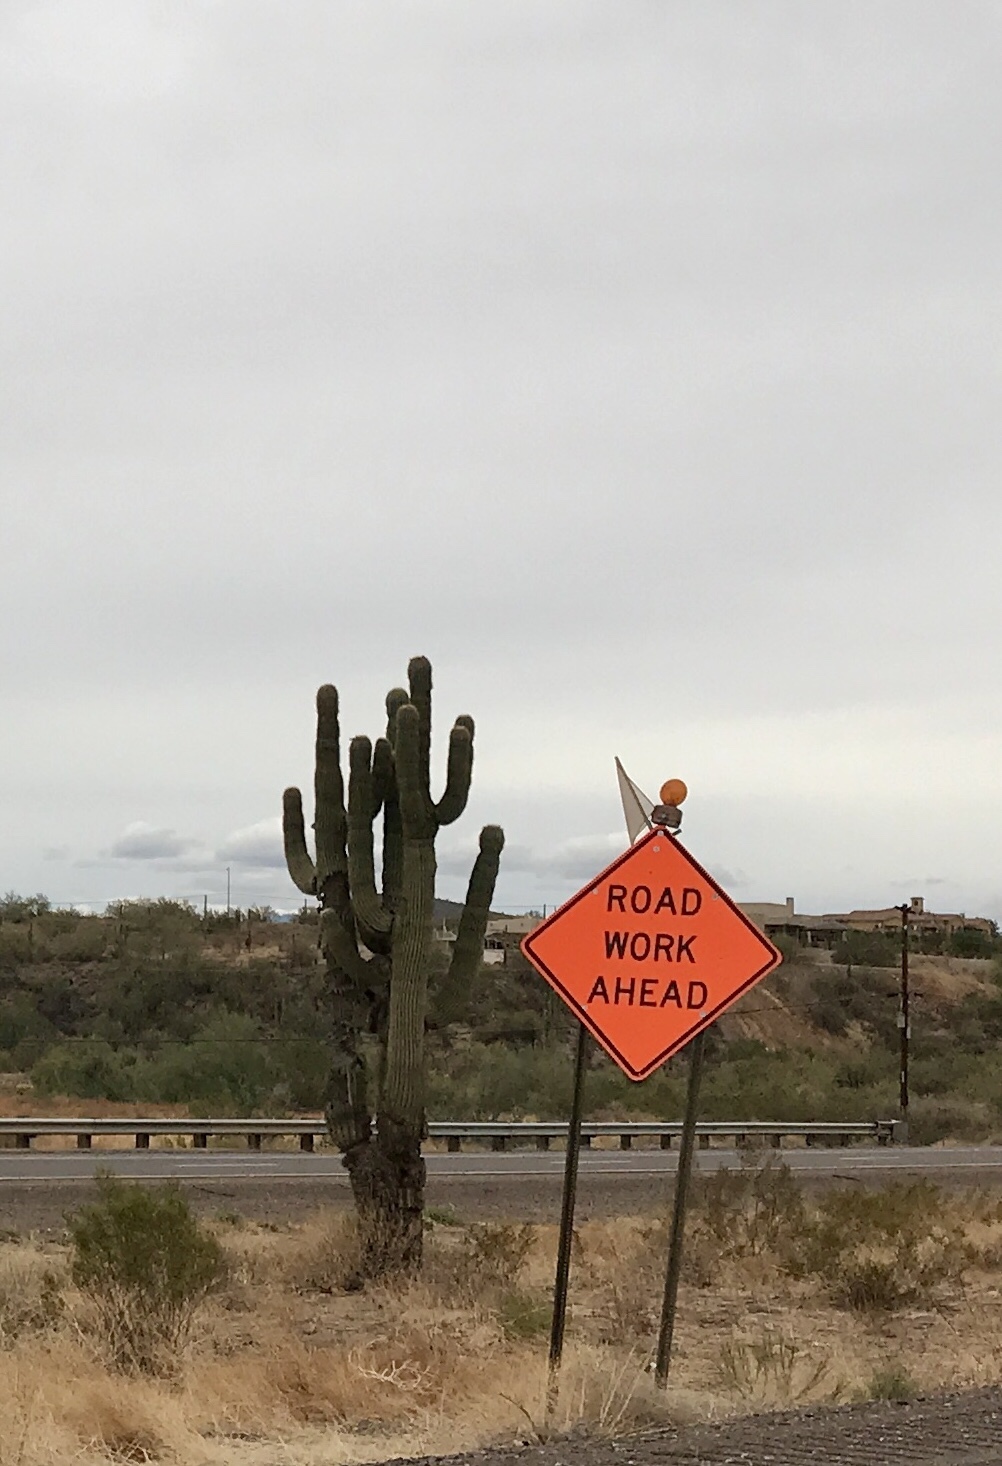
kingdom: Plantae
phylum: Tracheophyta
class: Magnoliopsida
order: Caryophyllales
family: Cactaceae
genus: Carnegiea
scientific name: Carnegiea gigantea
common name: Saguaro
